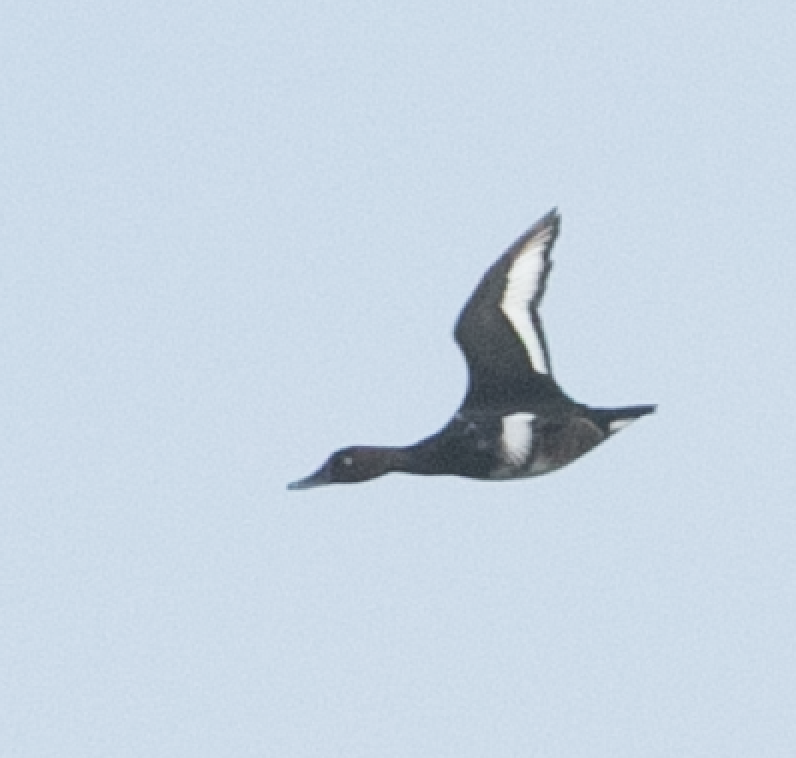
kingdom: Animalia
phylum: Chordata
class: Aves
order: Anseriformes
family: Anatidae
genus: Aythya
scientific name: Aythya nyroca
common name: Ferruginous duck
